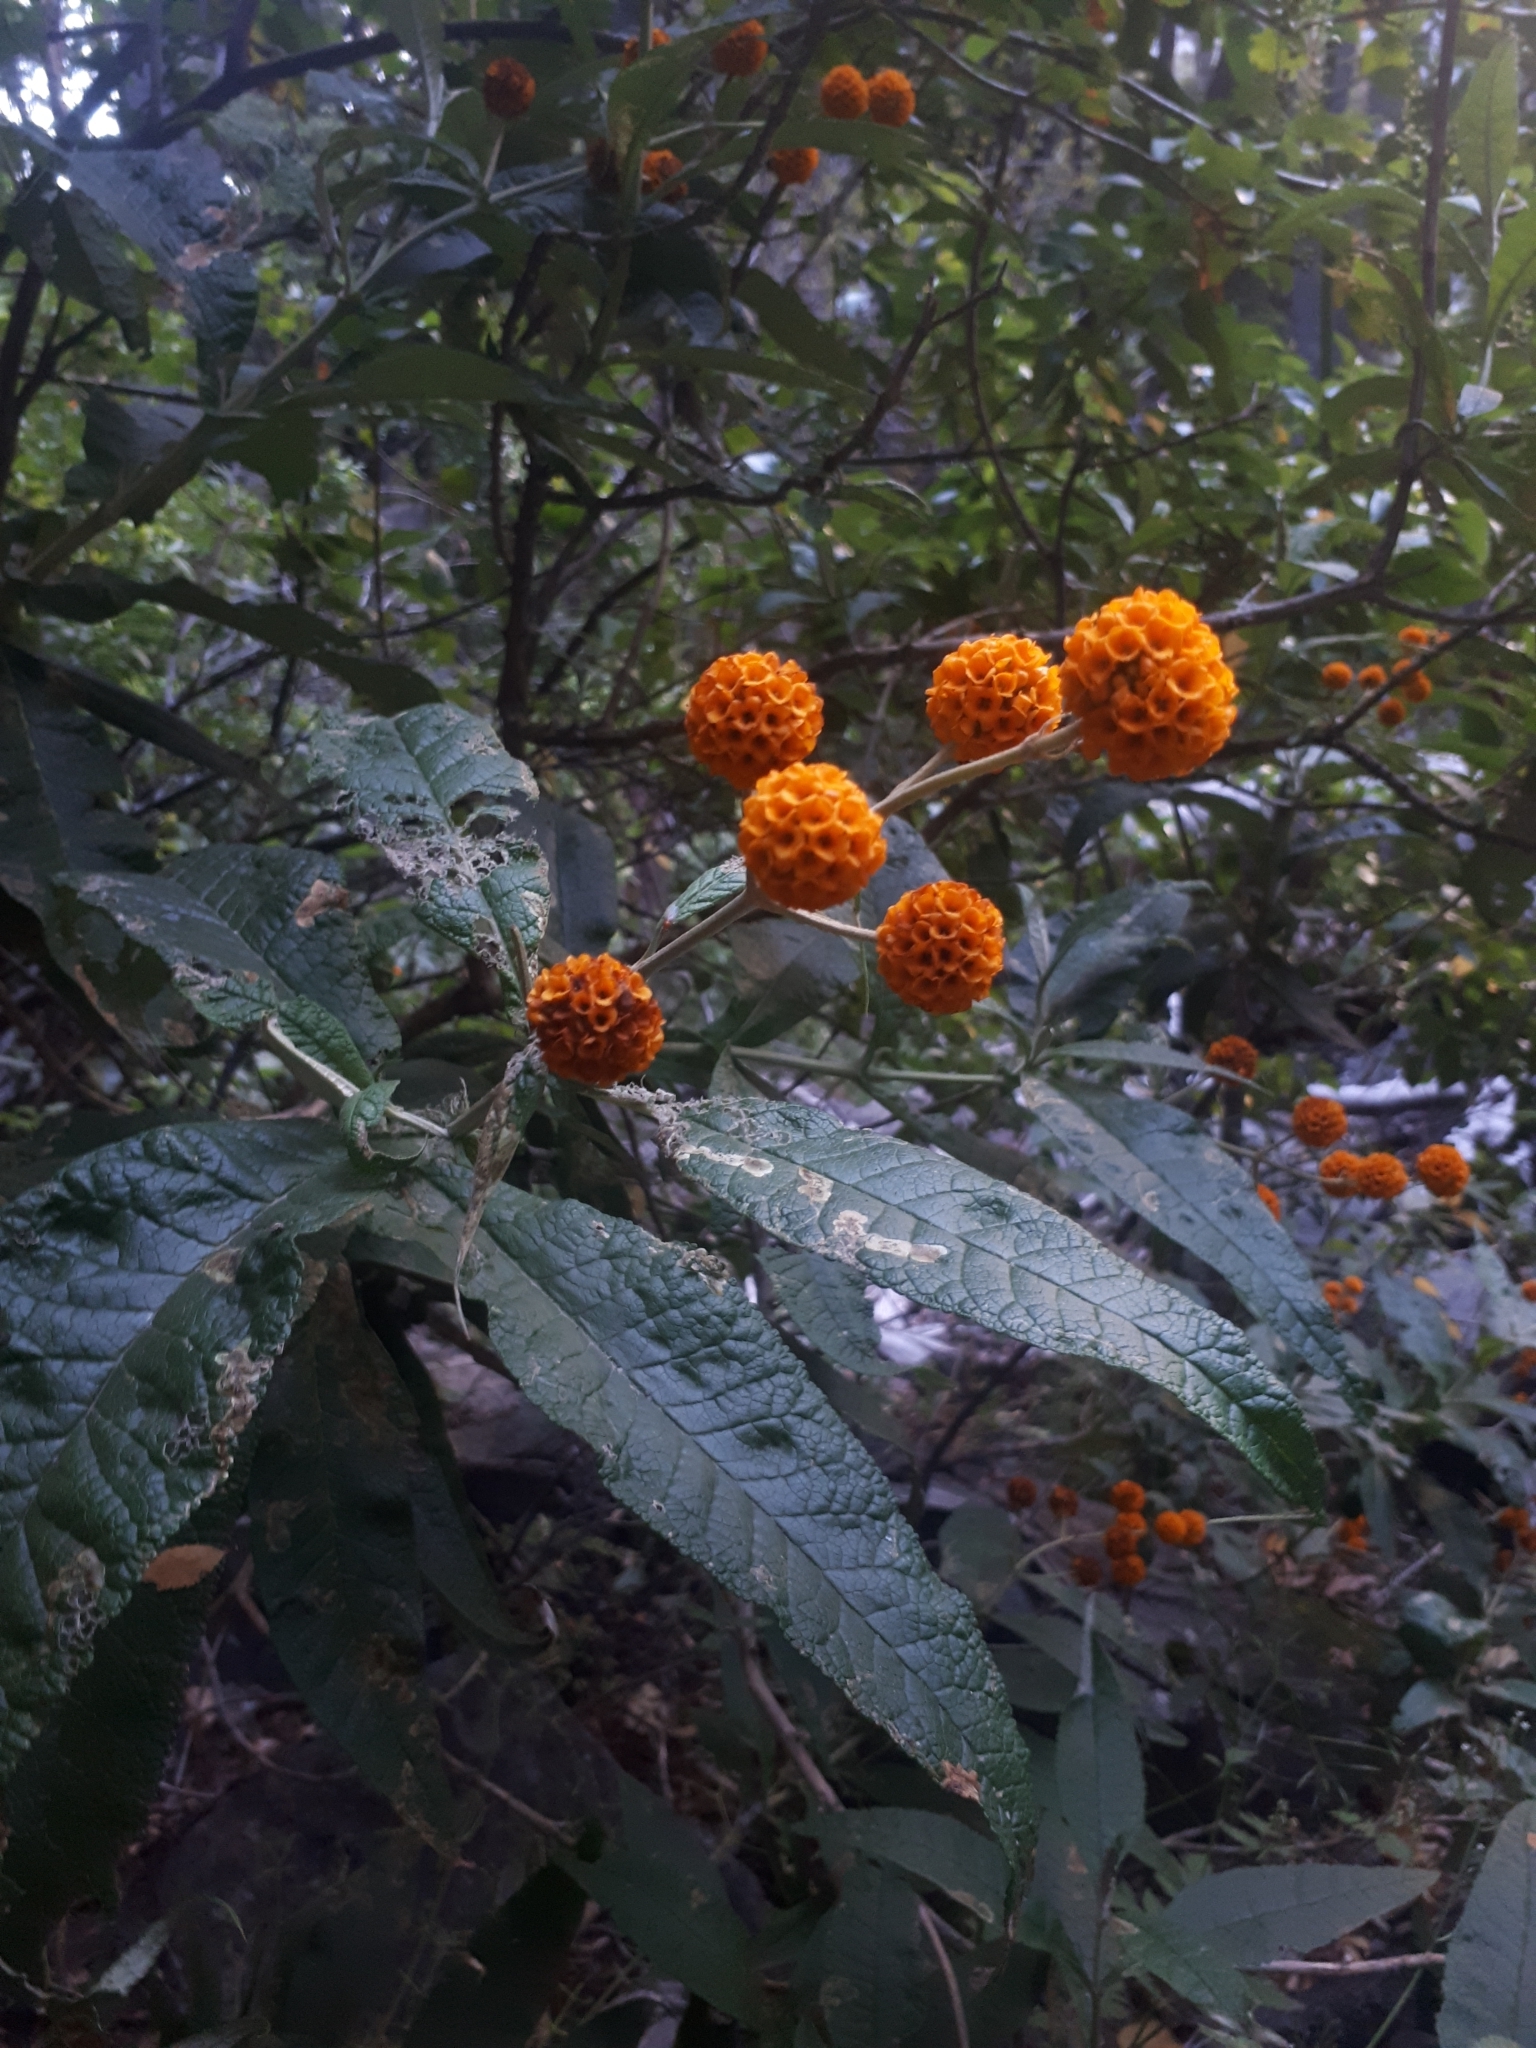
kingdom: Plantae
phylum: Tracheophyta
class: Magnoliopsida
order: Lamiales
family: Scrophulariaceae
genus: Buddleja
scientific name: Buddleja globosa
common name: Orange-ball-tree
